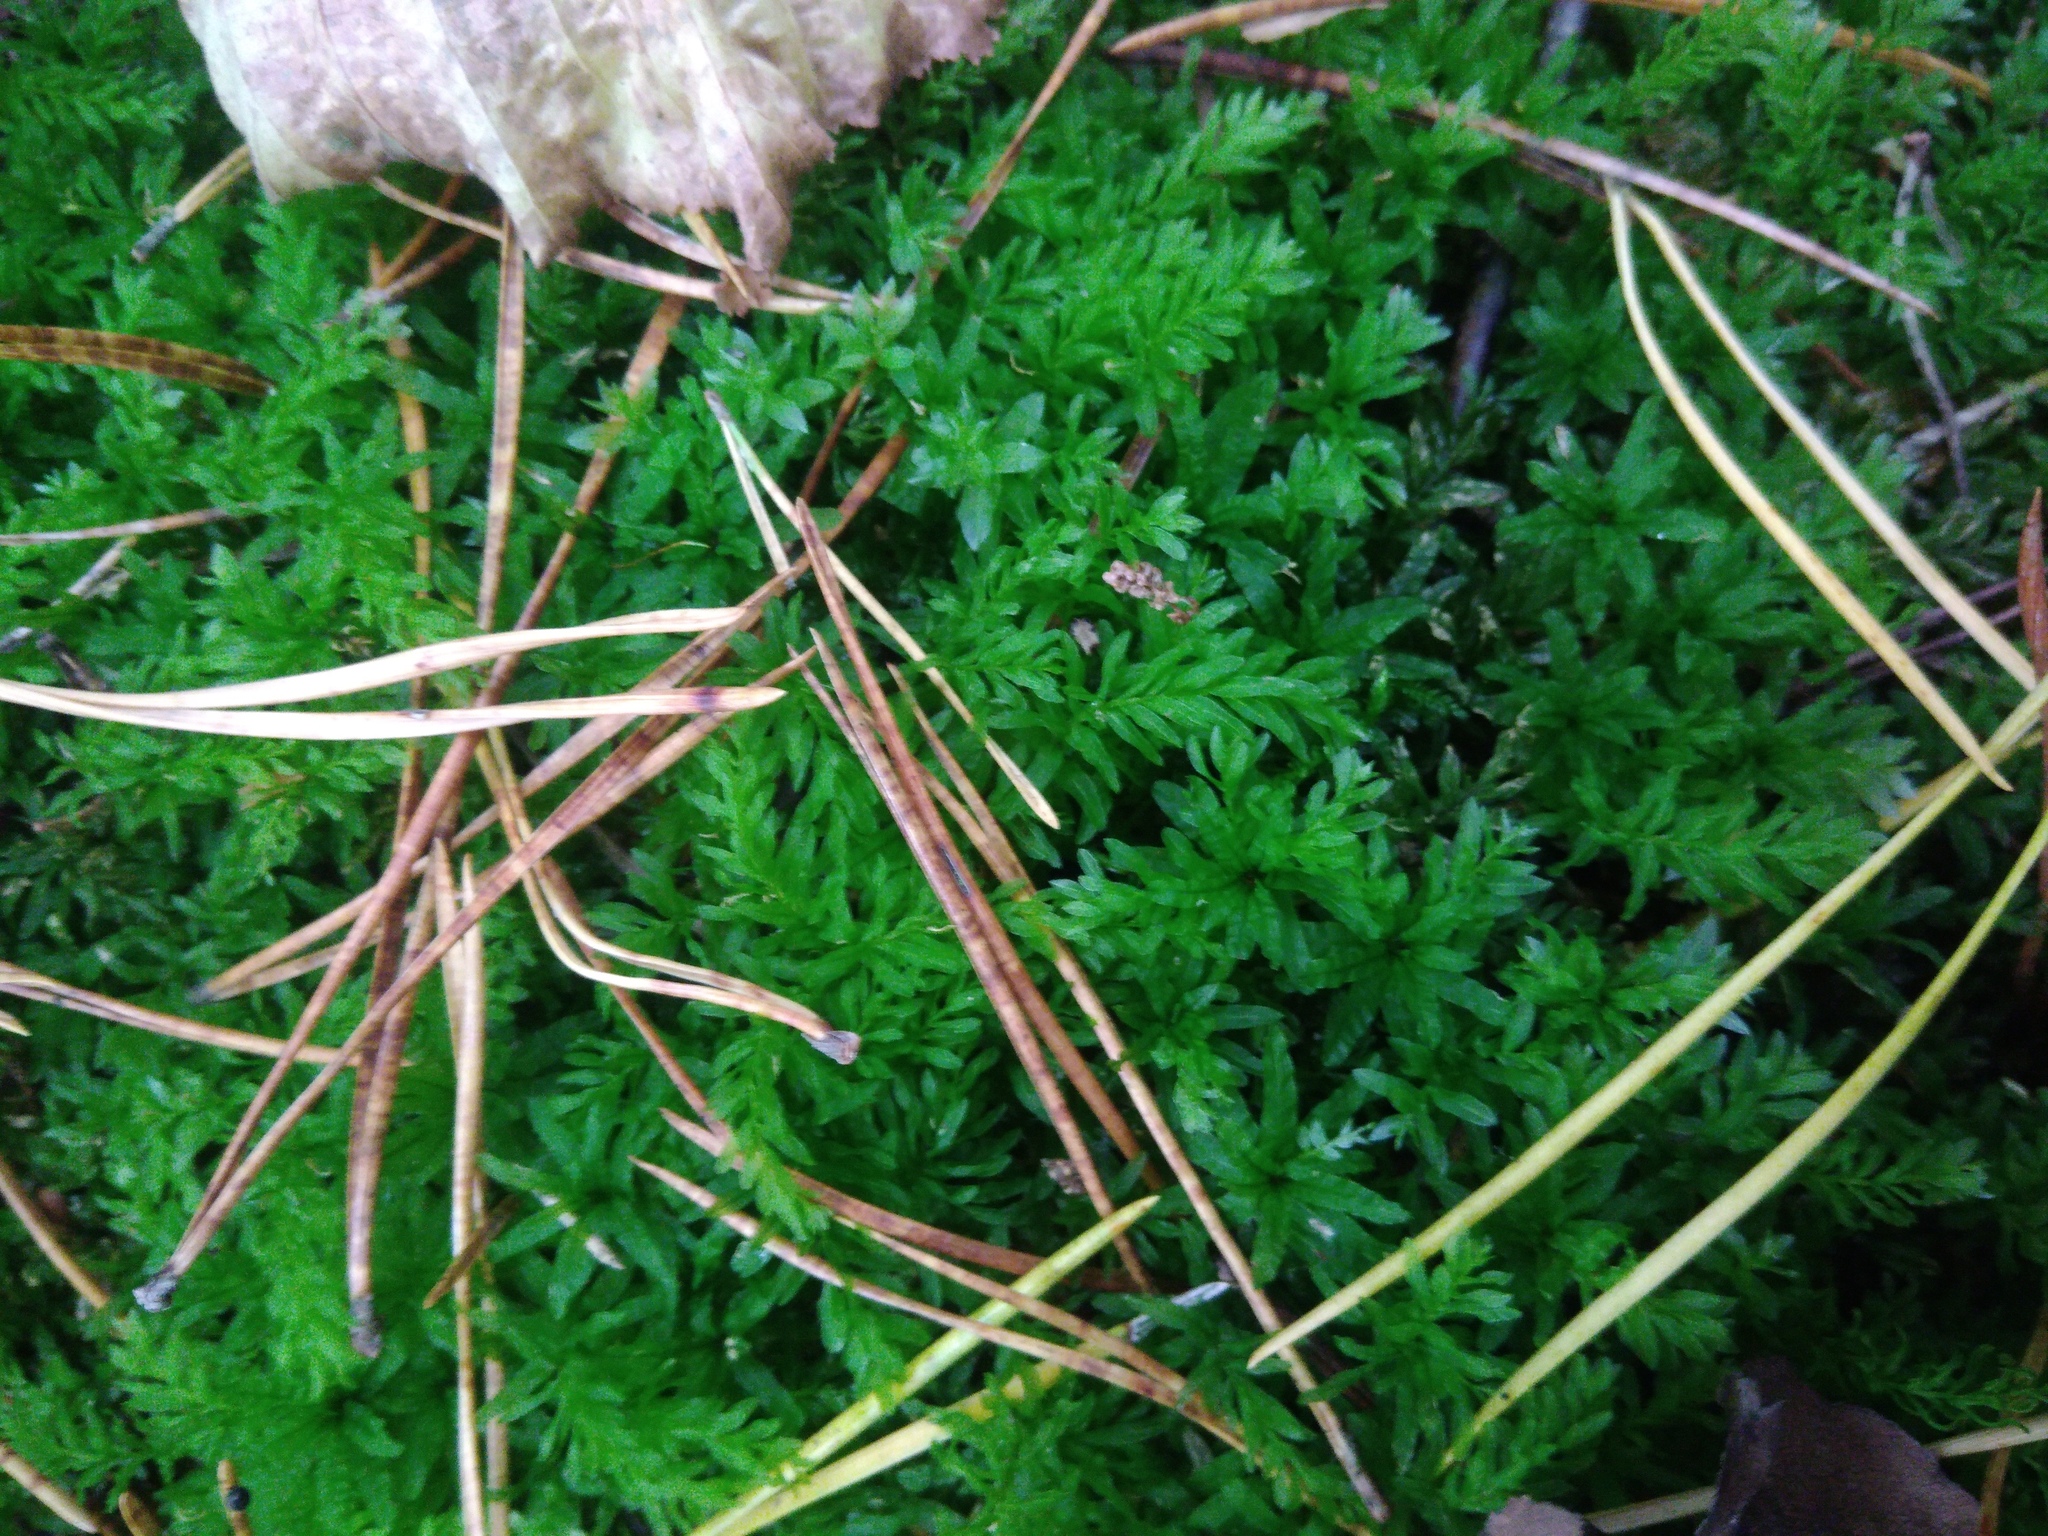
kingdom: Plantae
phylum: Bryophyta
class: Bryopsida
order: Bryales
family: Mniaceae
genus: Plagiomnium
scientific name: Plagiomnium undulatum
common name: Hart's-tongue thyme-moss
